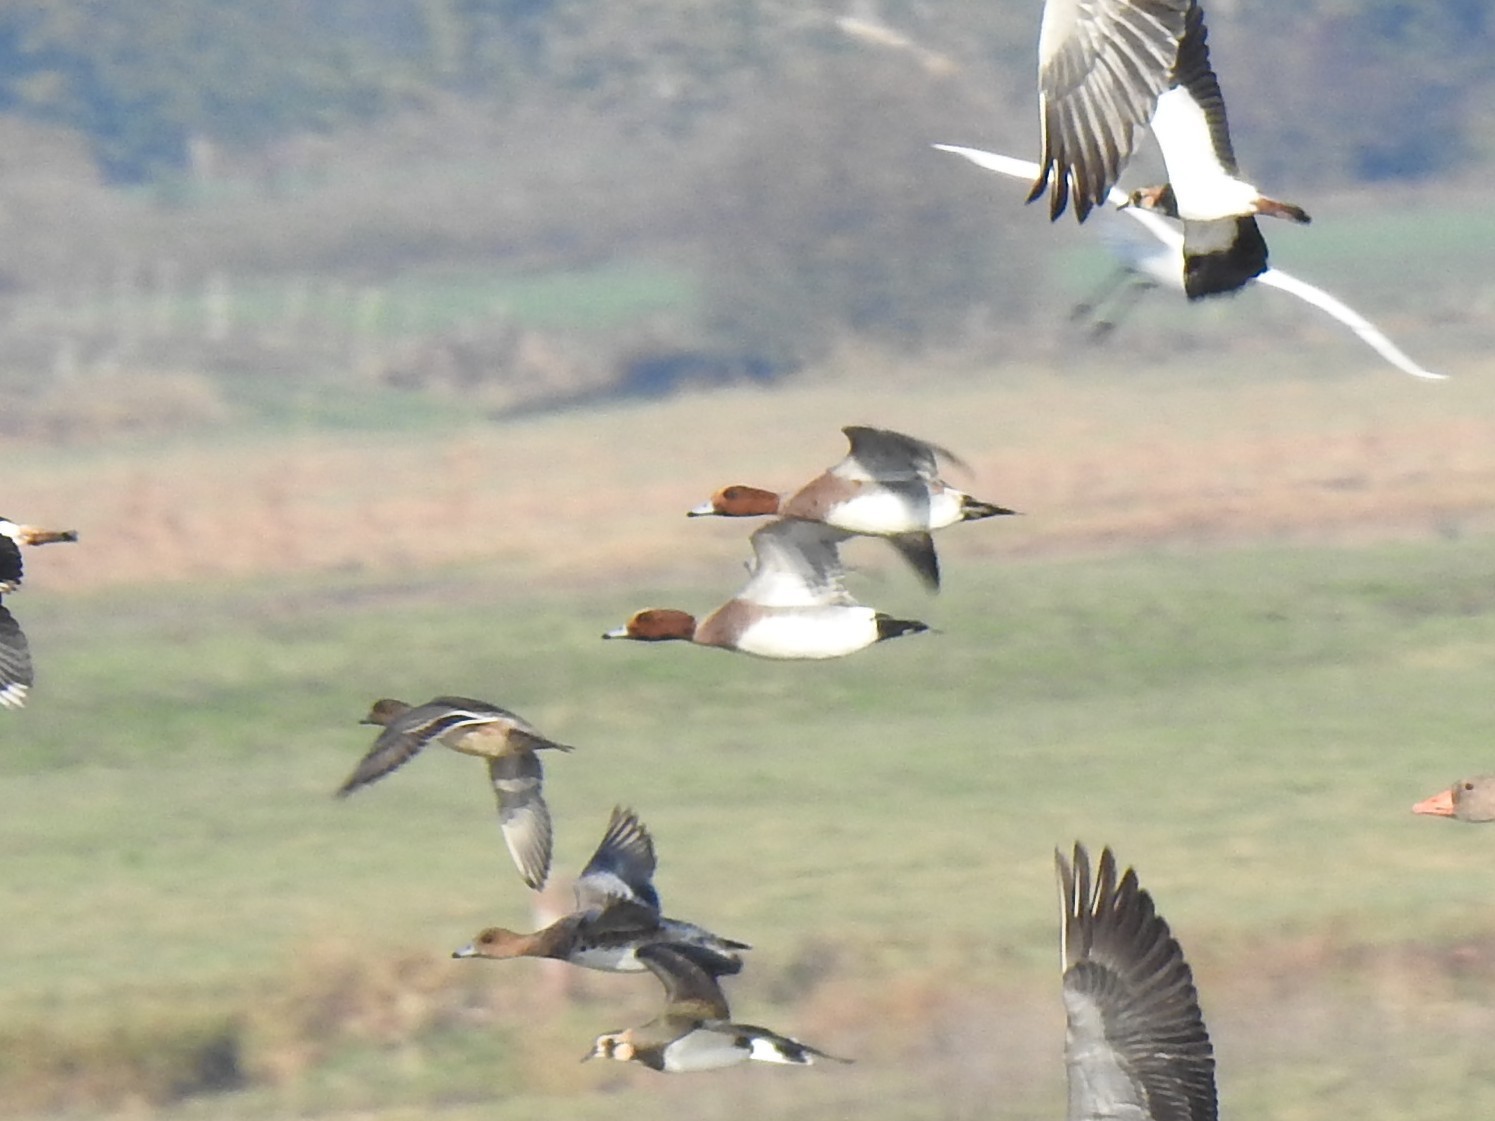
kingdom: Animalia
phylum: Chordata
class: Aves
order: Anseriformes
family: Anatidae
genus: Mareca
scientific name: Mareca penelope
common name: Eurasian wigeon
